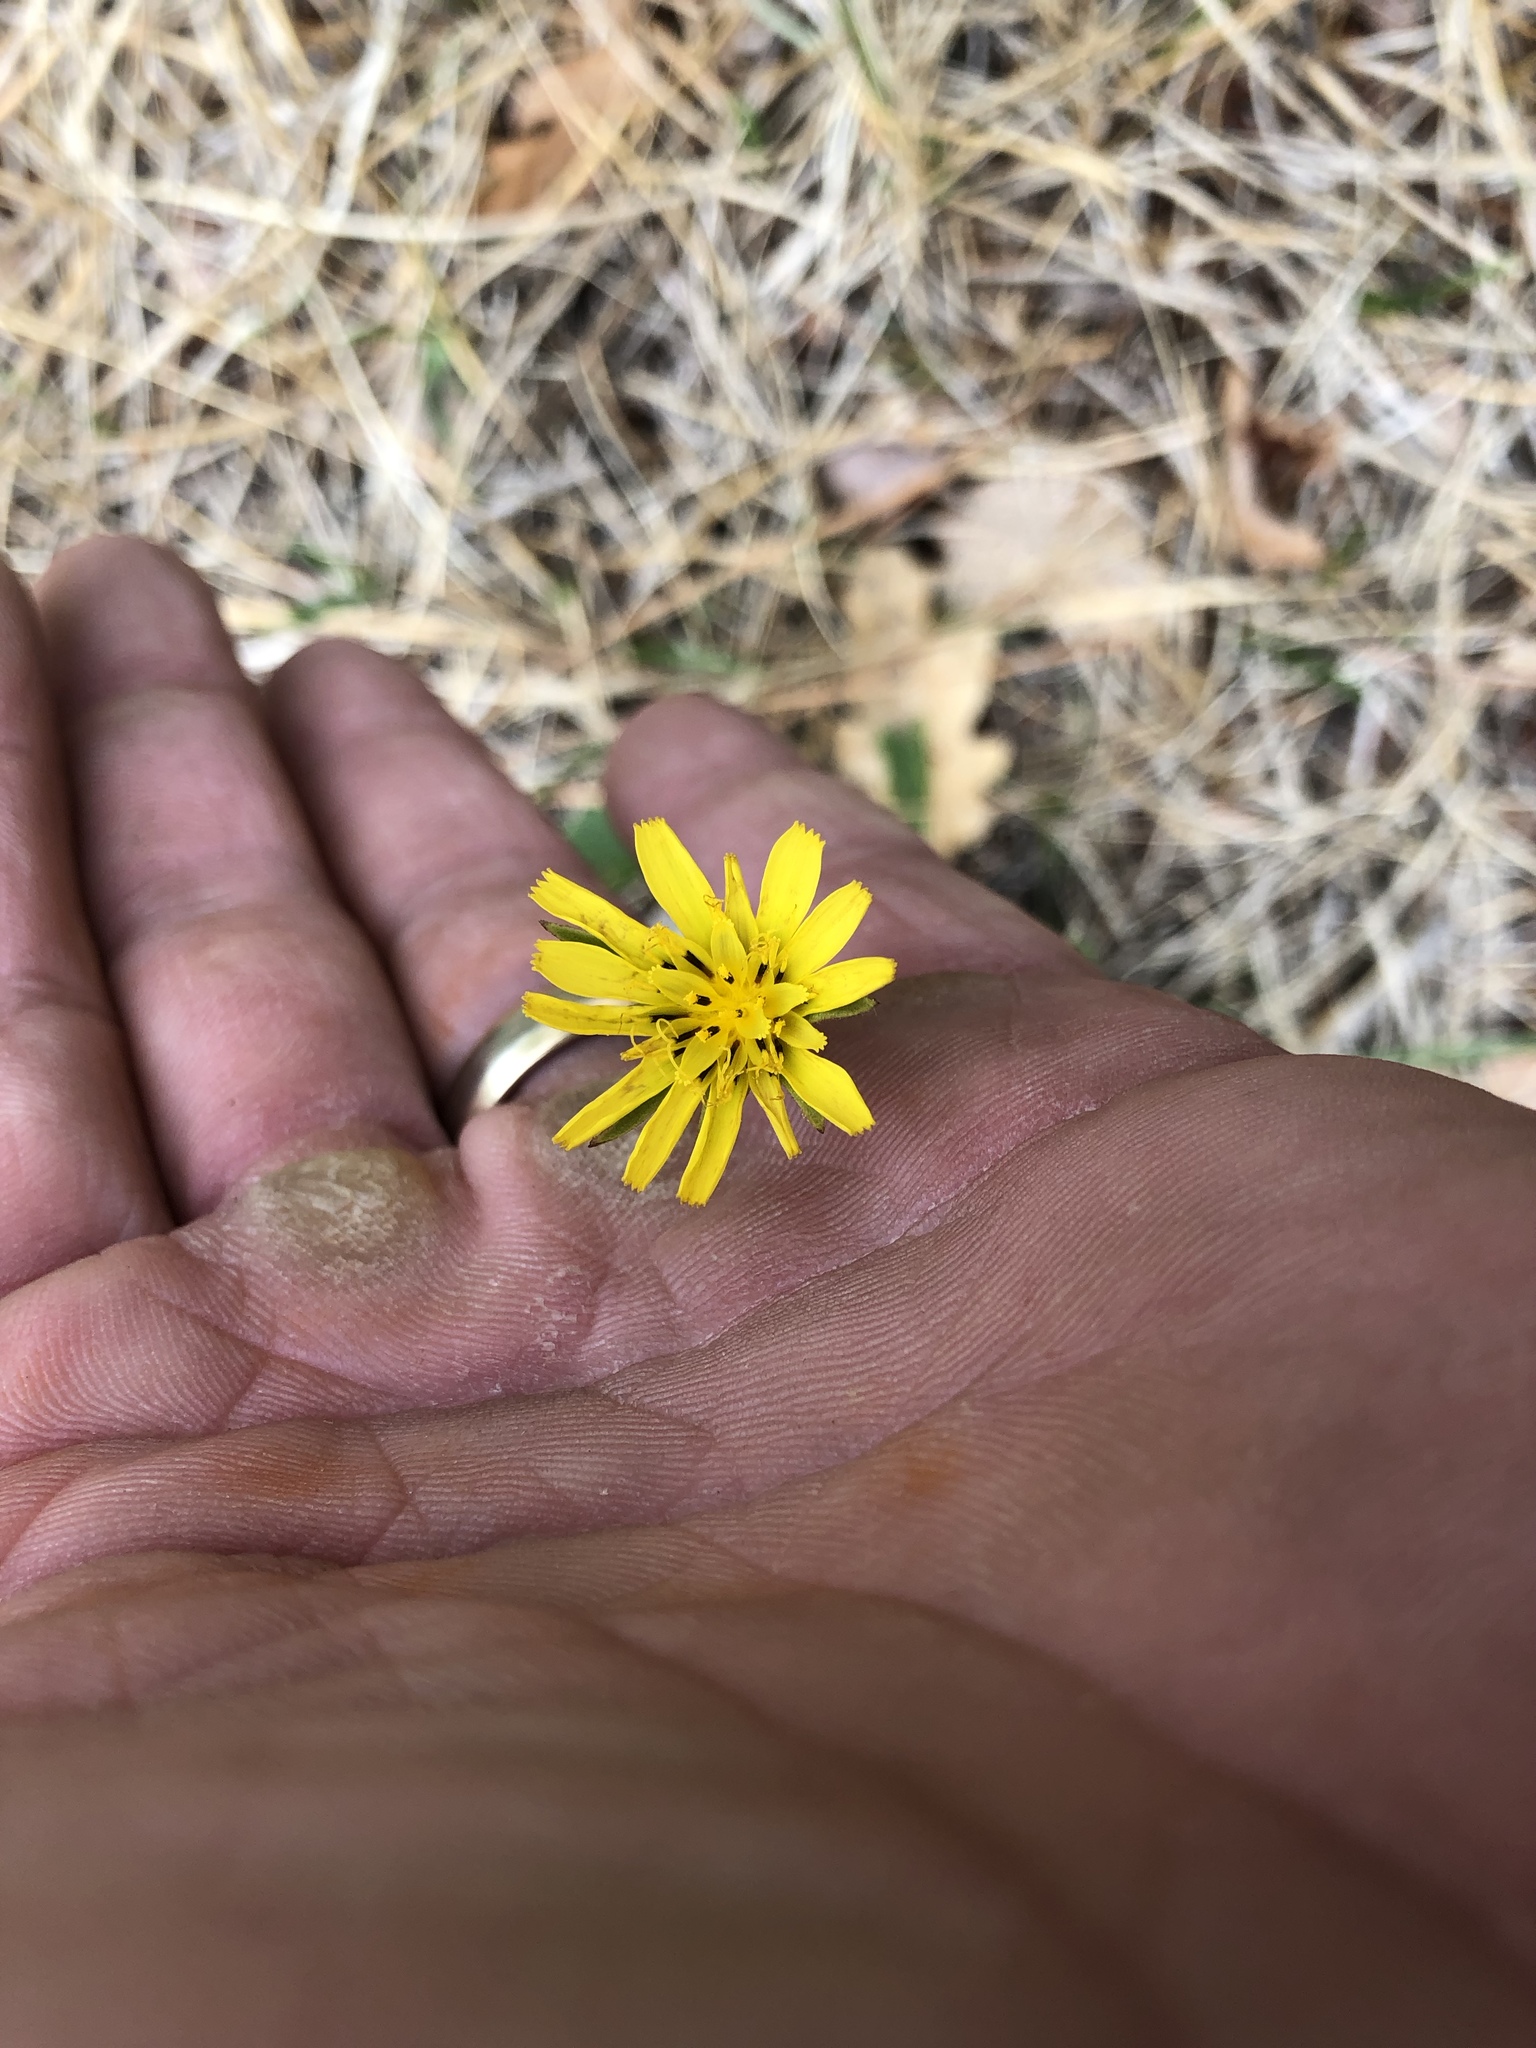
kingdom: Plantae
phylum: Tracheophyta
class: Magnoliopsida
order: Asterales
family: Asteraceae
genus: Tragopogon
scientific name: Tragopogon dubius
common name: Yellow salsify
